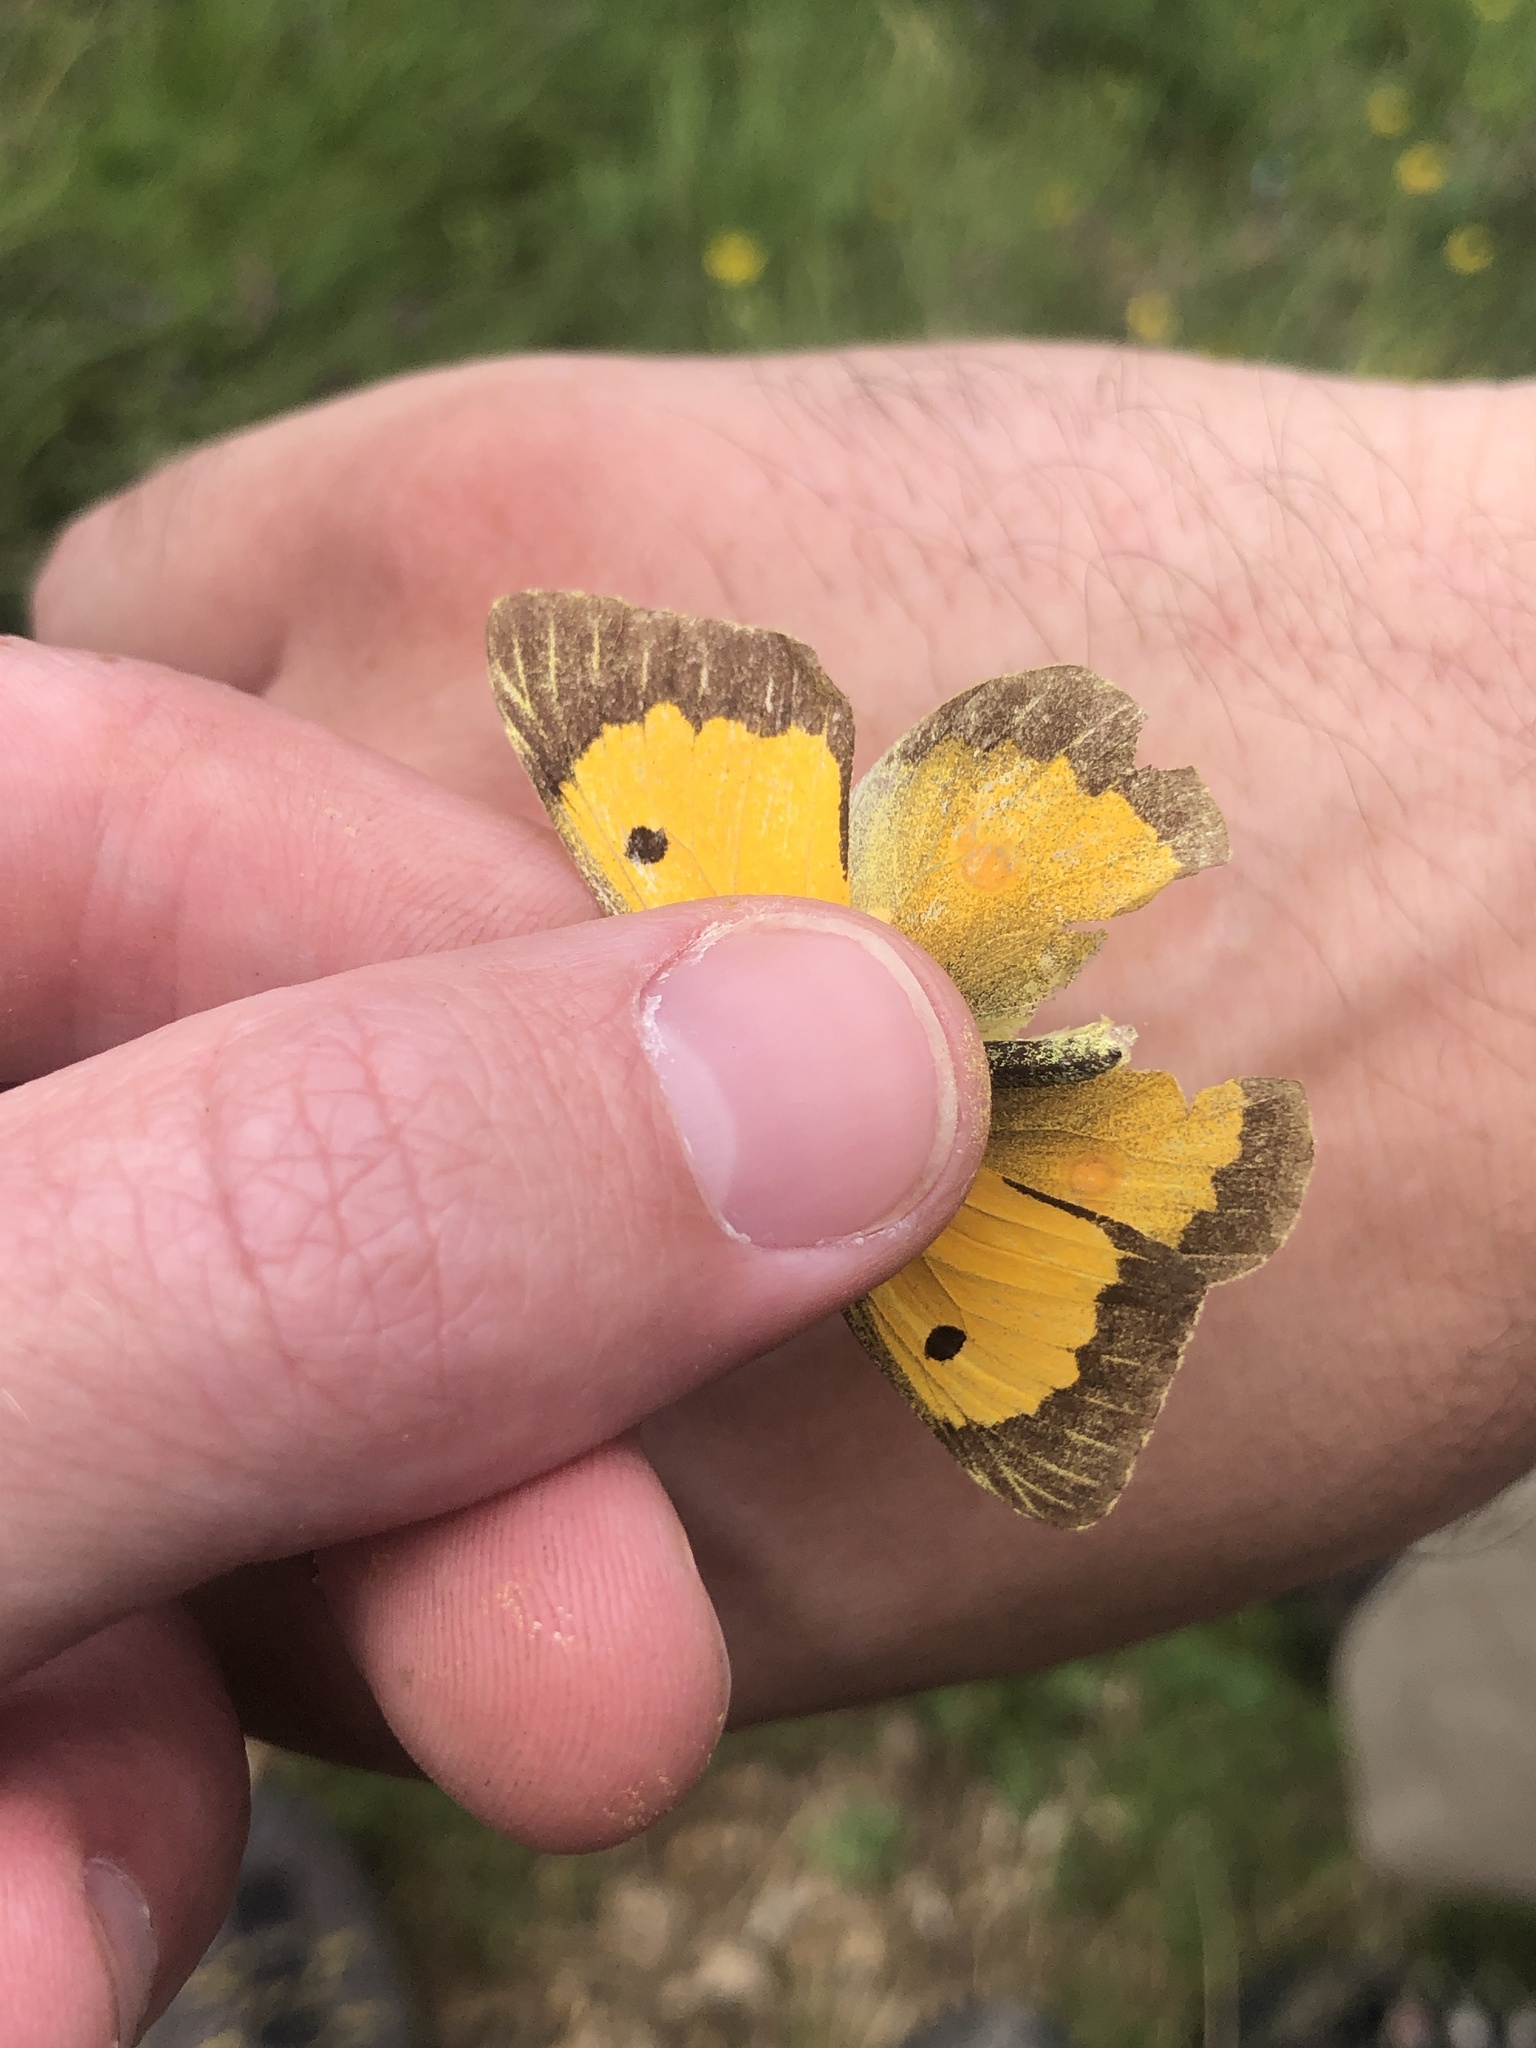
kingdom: Animalia
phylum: Arthropoda
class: Insecta
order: Lepidoptera
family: Pieridae
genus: Colias
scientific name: Colias croceus
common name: Clouded yellow
